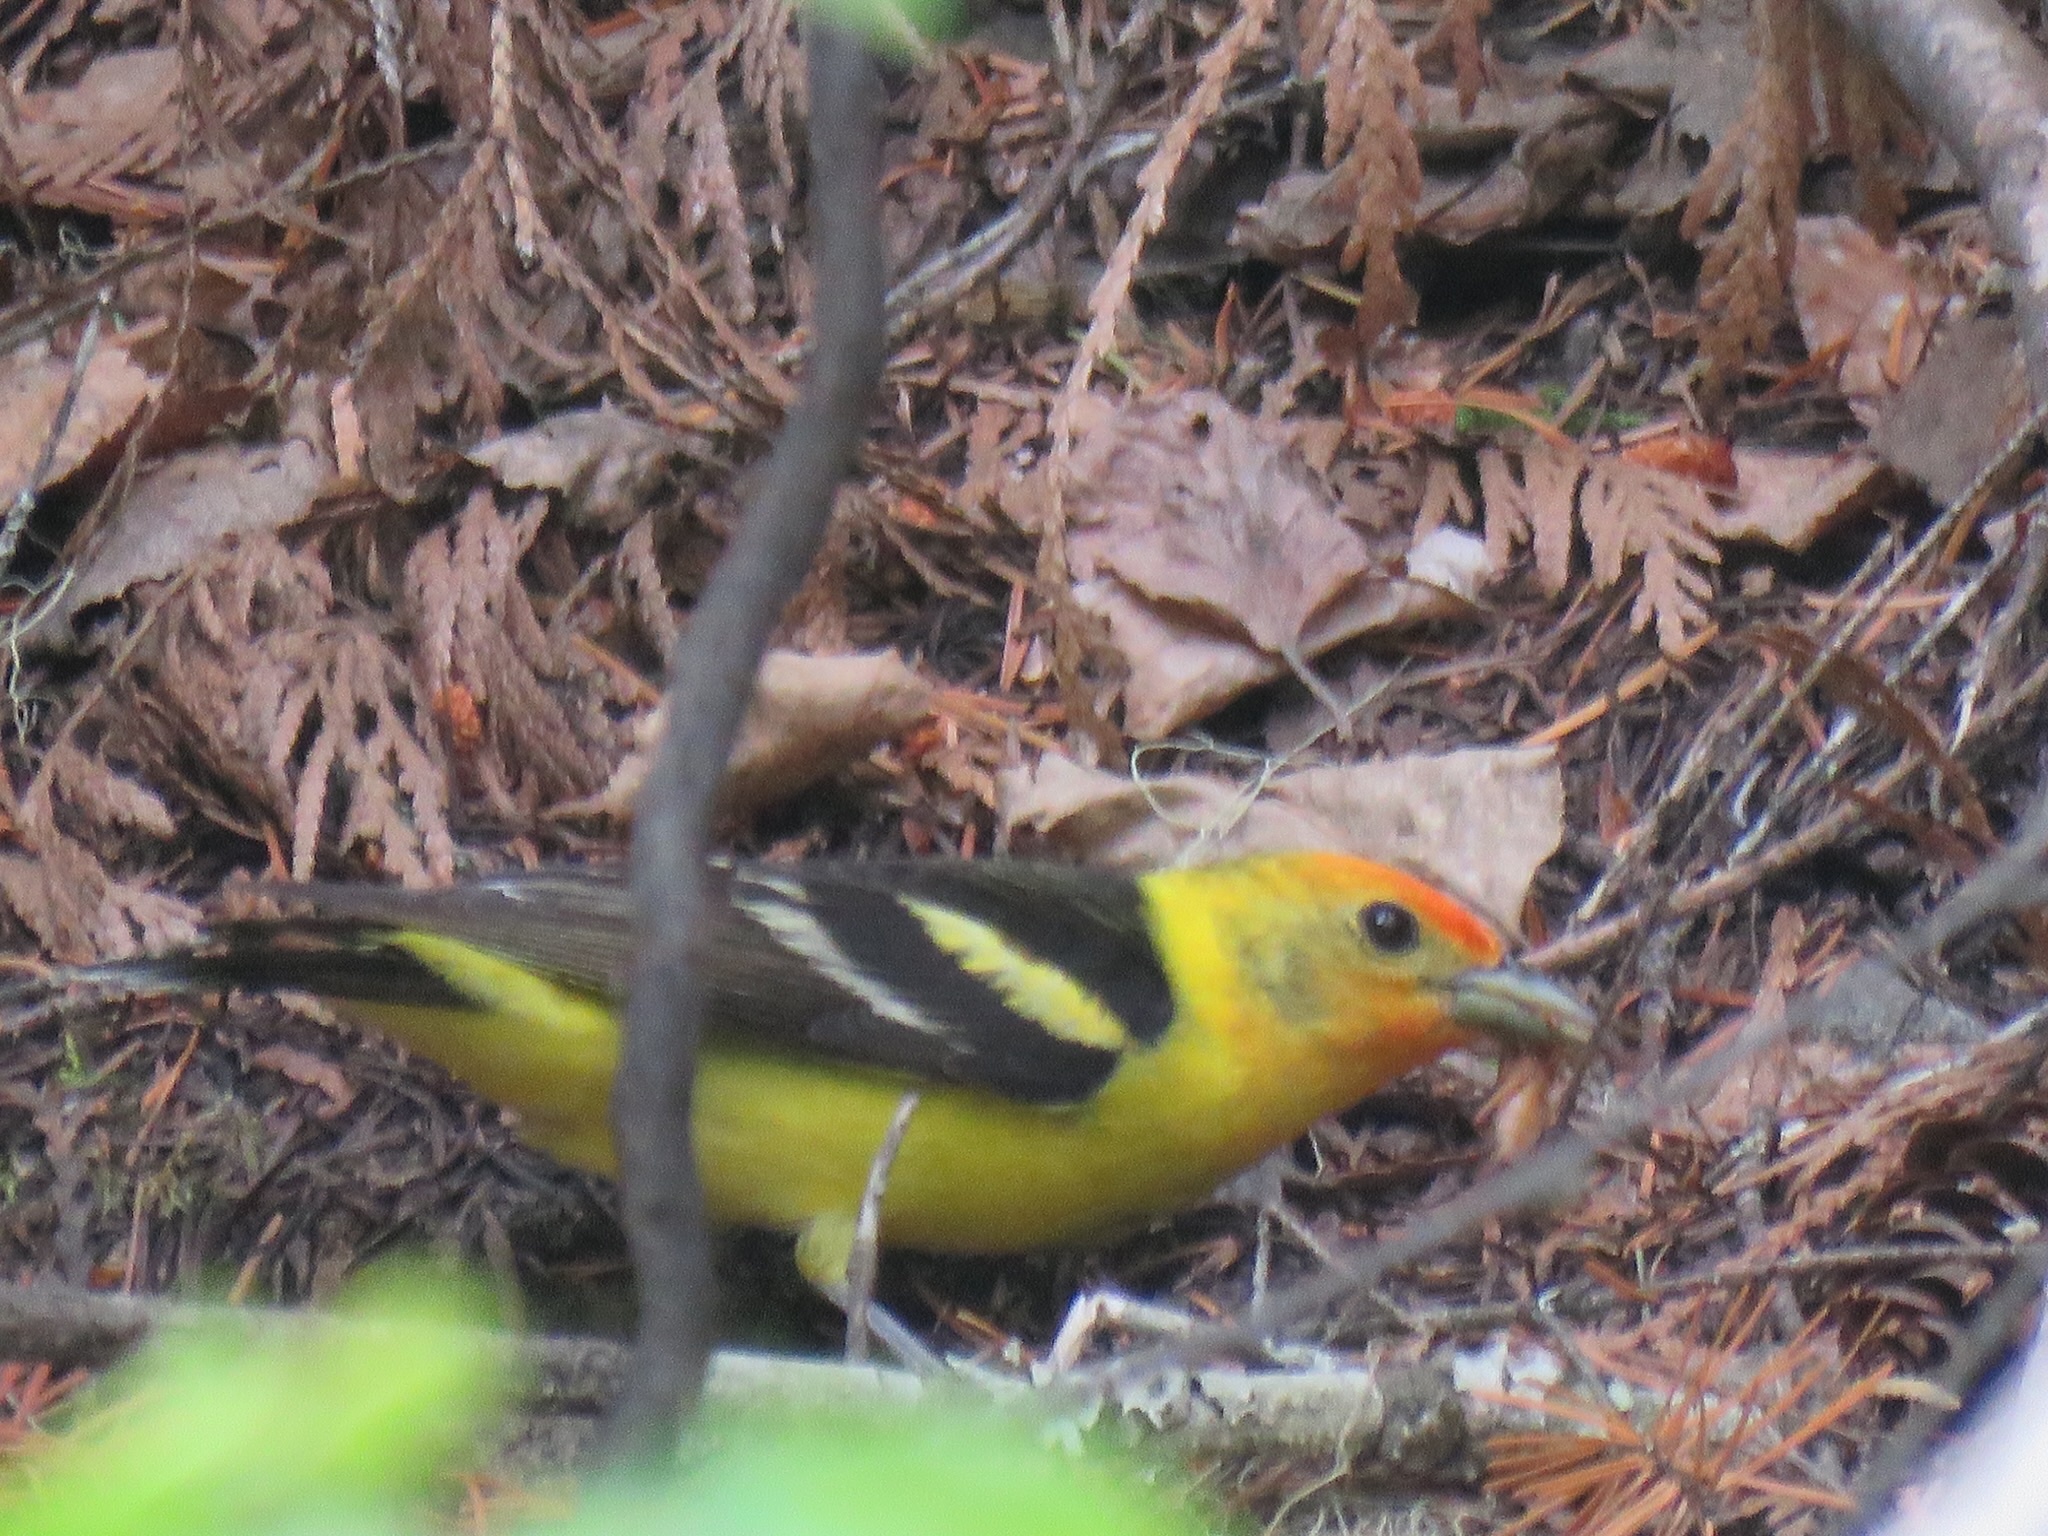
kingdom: Animalia
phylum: Chordata
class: Aves
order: Passeriformes
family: Cardinalidae
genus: Piranga
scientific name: Piranga ludoviciana
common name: Western tanager
